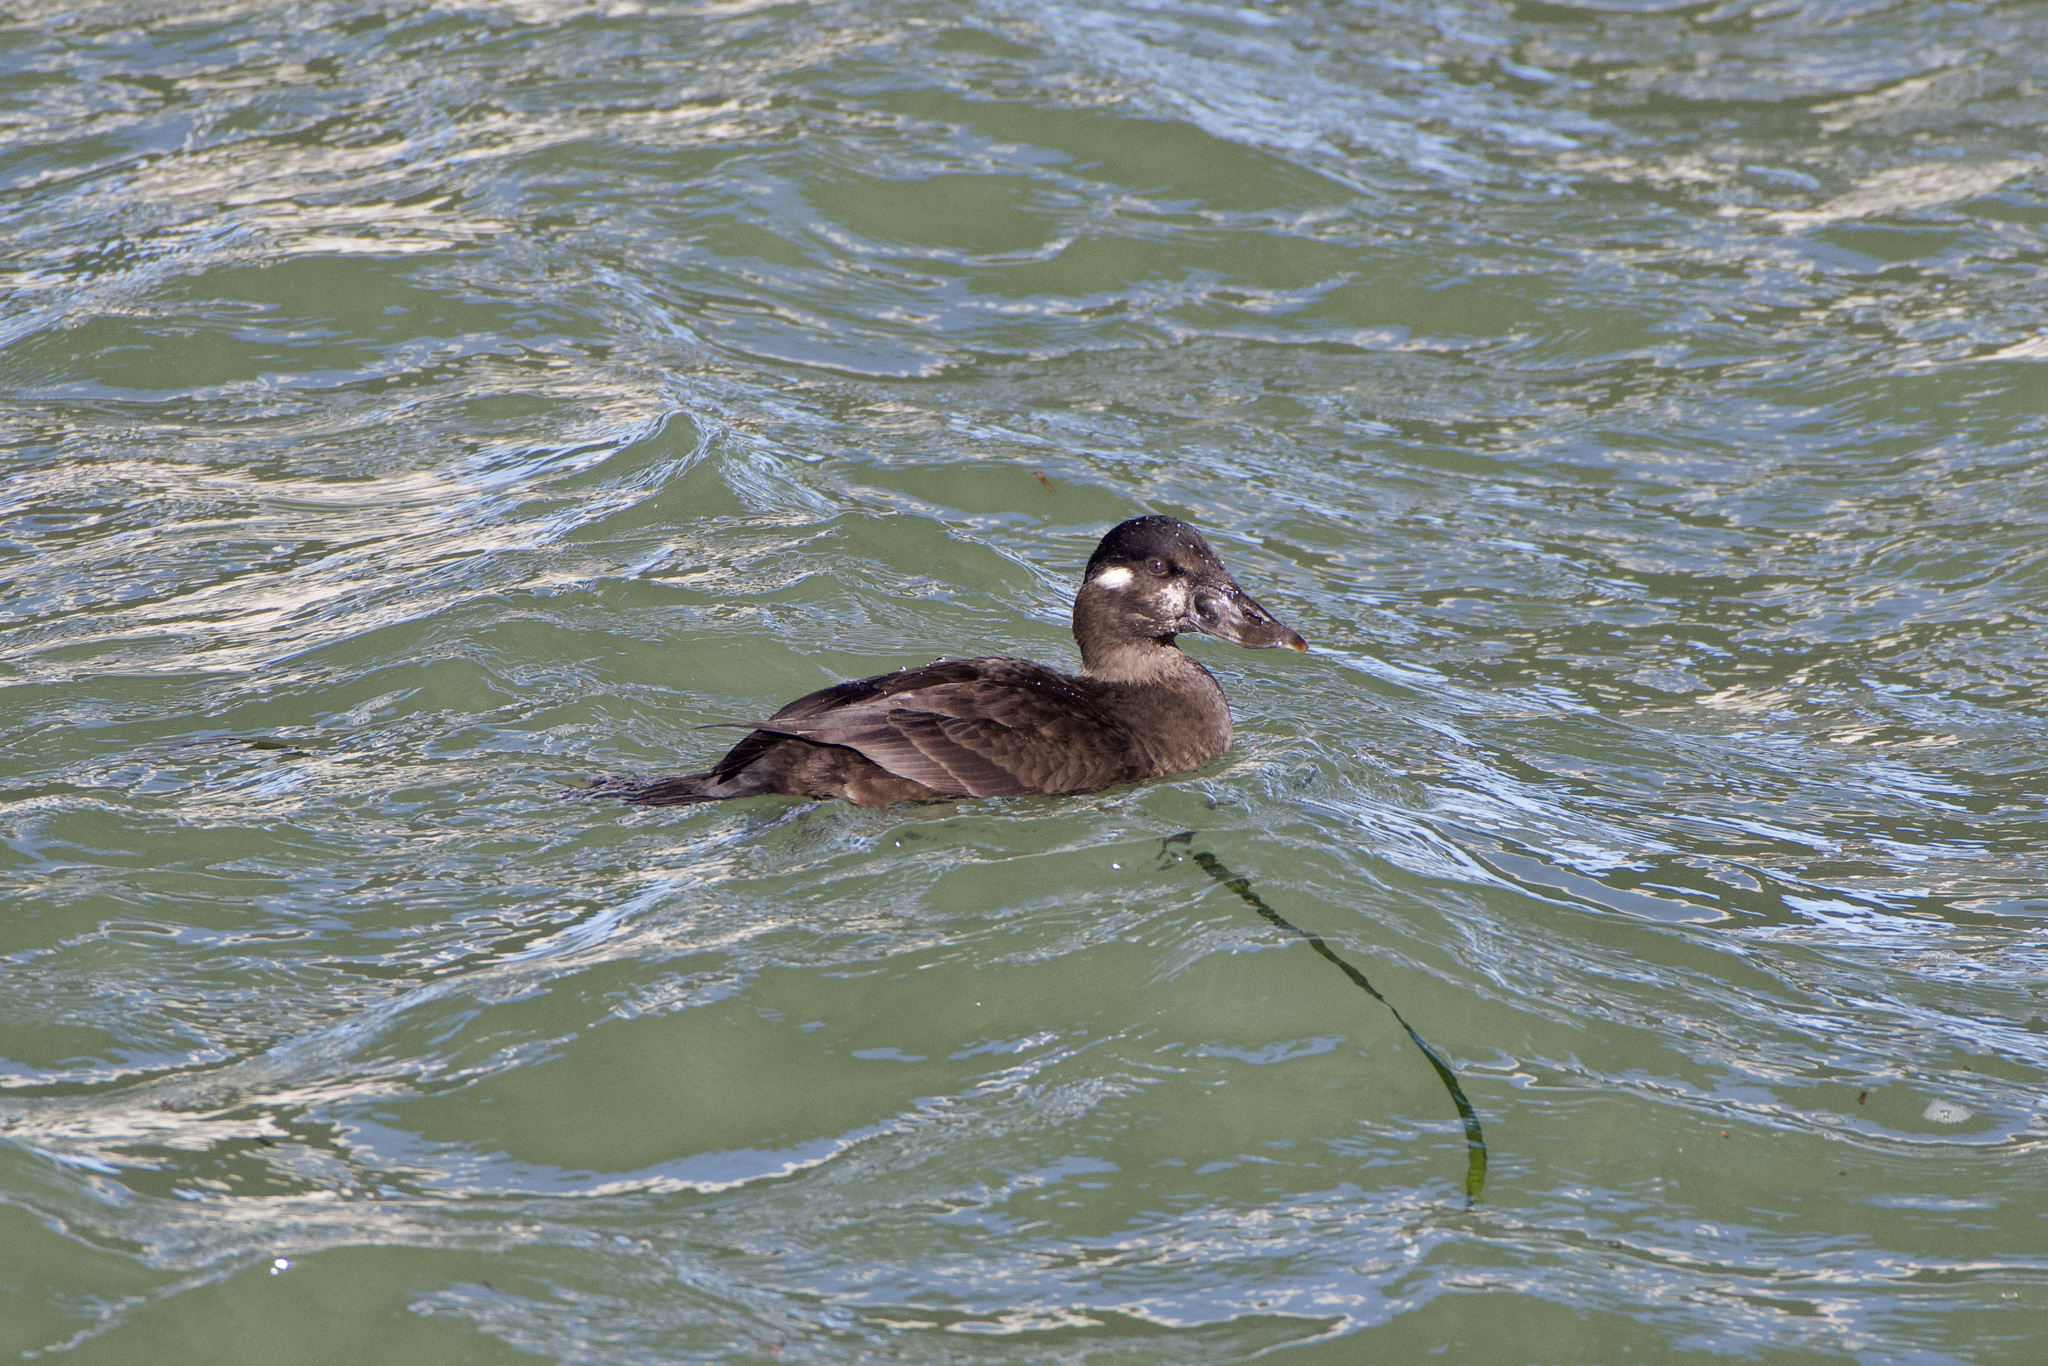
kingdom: Animalia
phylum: Chordata
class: Aves
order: Anseriformes
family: Anatidae
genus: Melanitta
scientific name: Melanitta perspicillata
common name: Surf scoter
